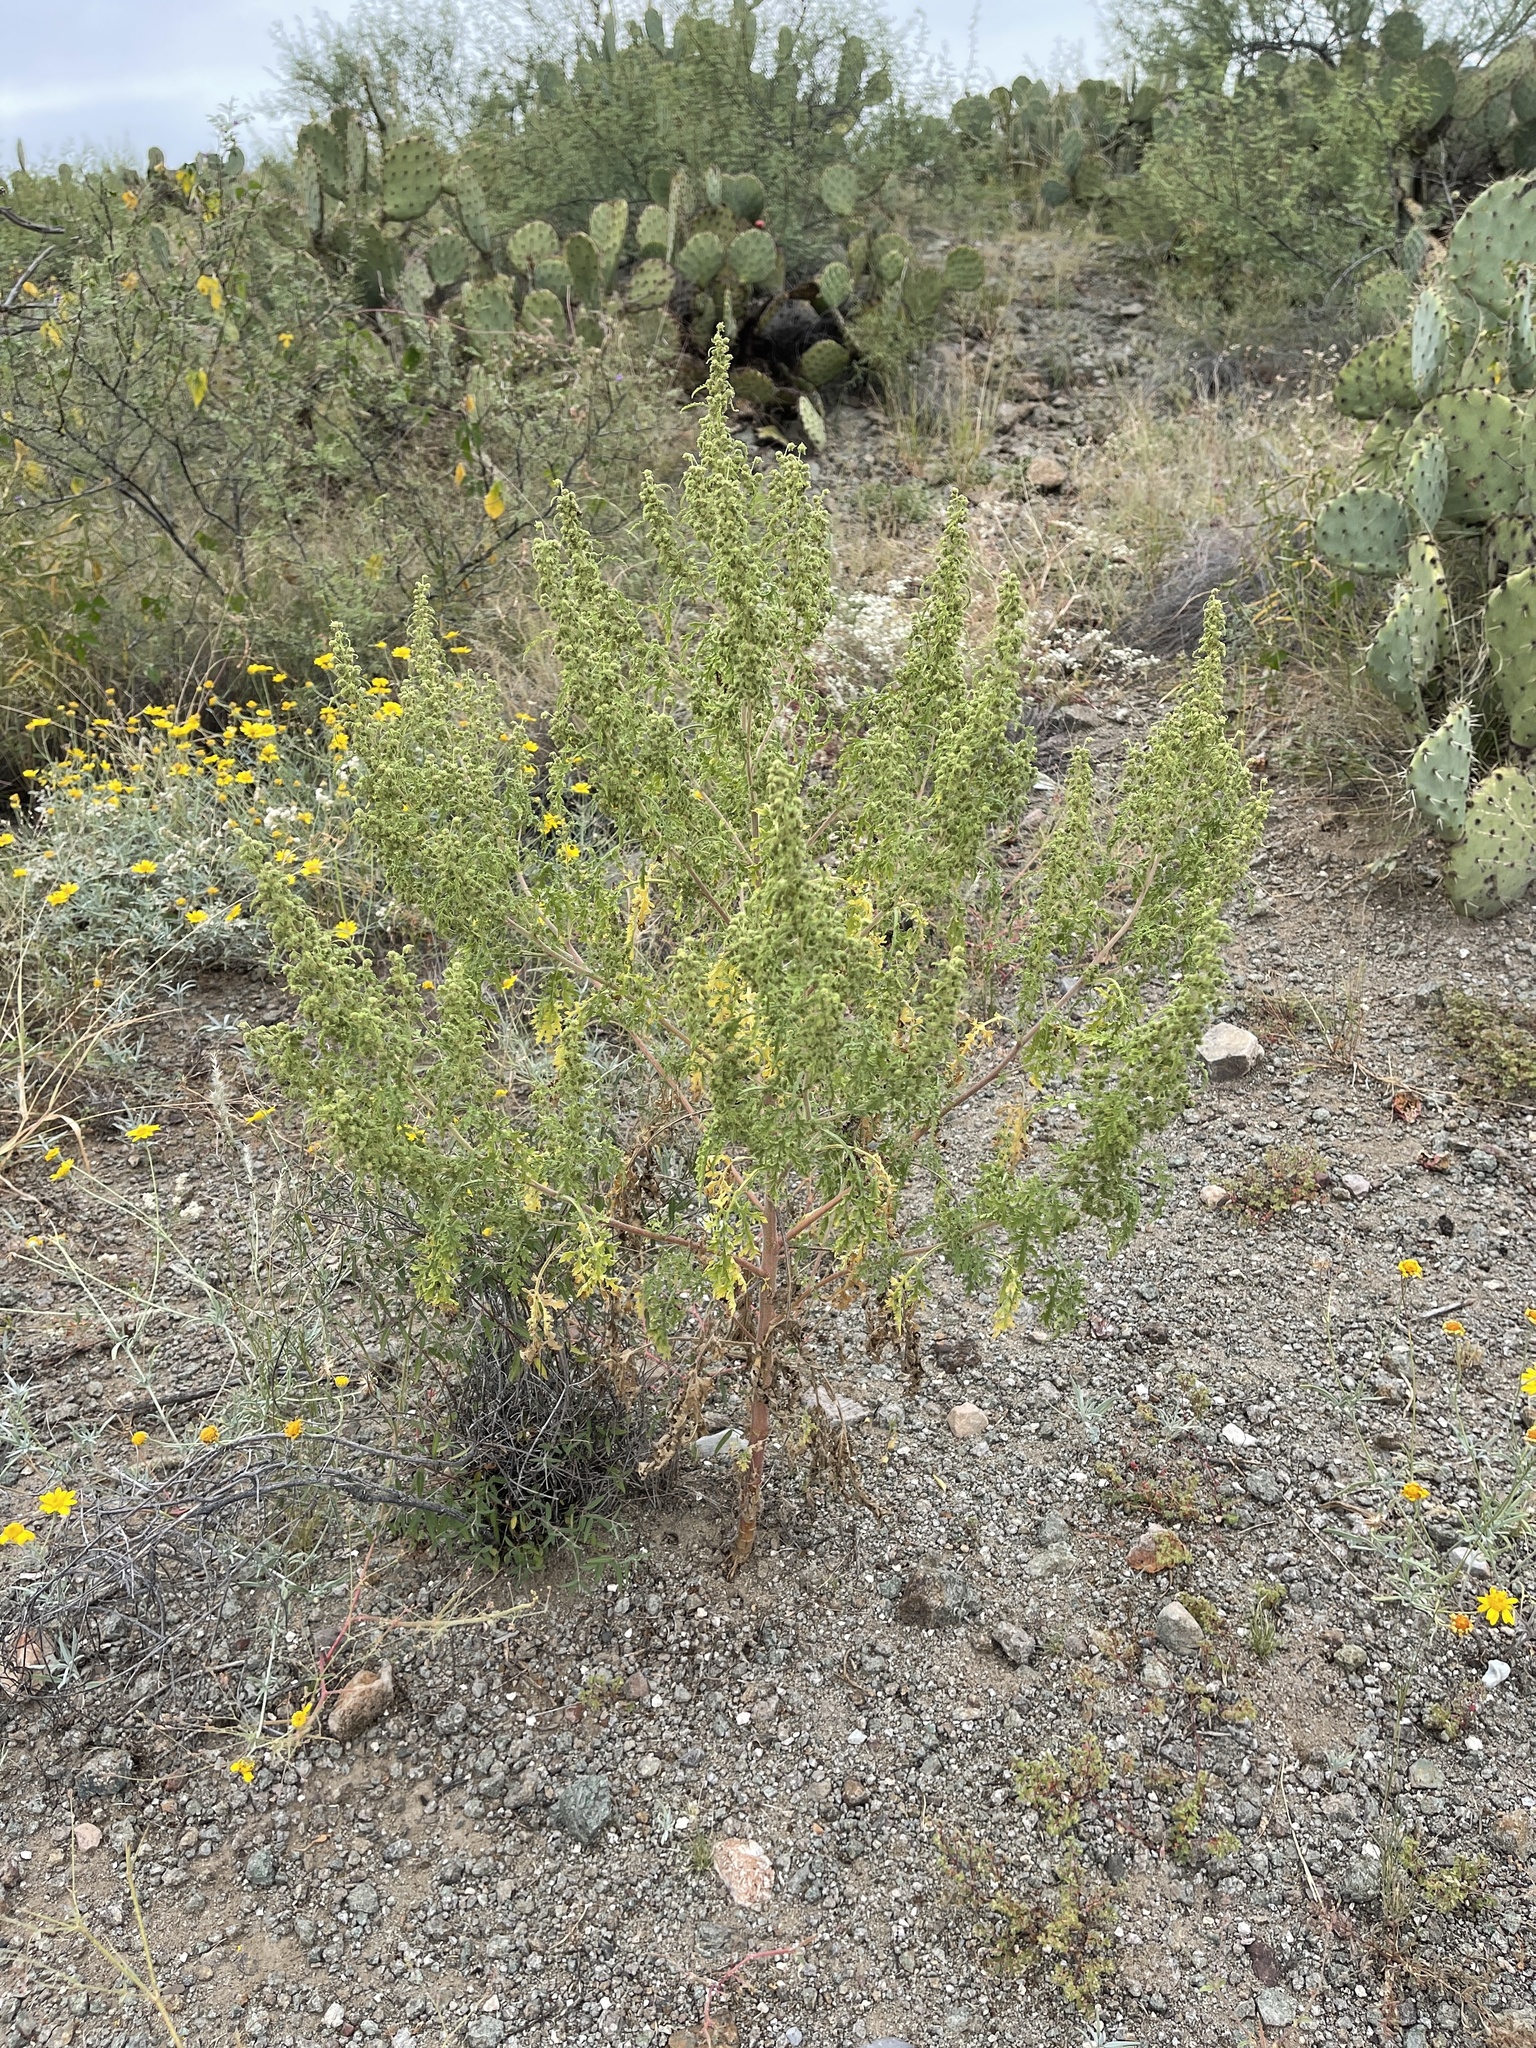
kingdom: Plantae
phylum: Tracheophyta
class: Magnoliopsida
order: Asterales
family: Asteraceae
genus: Ambrosia
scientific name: Ambrosia artemisiifolia
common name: Annual ragweed
